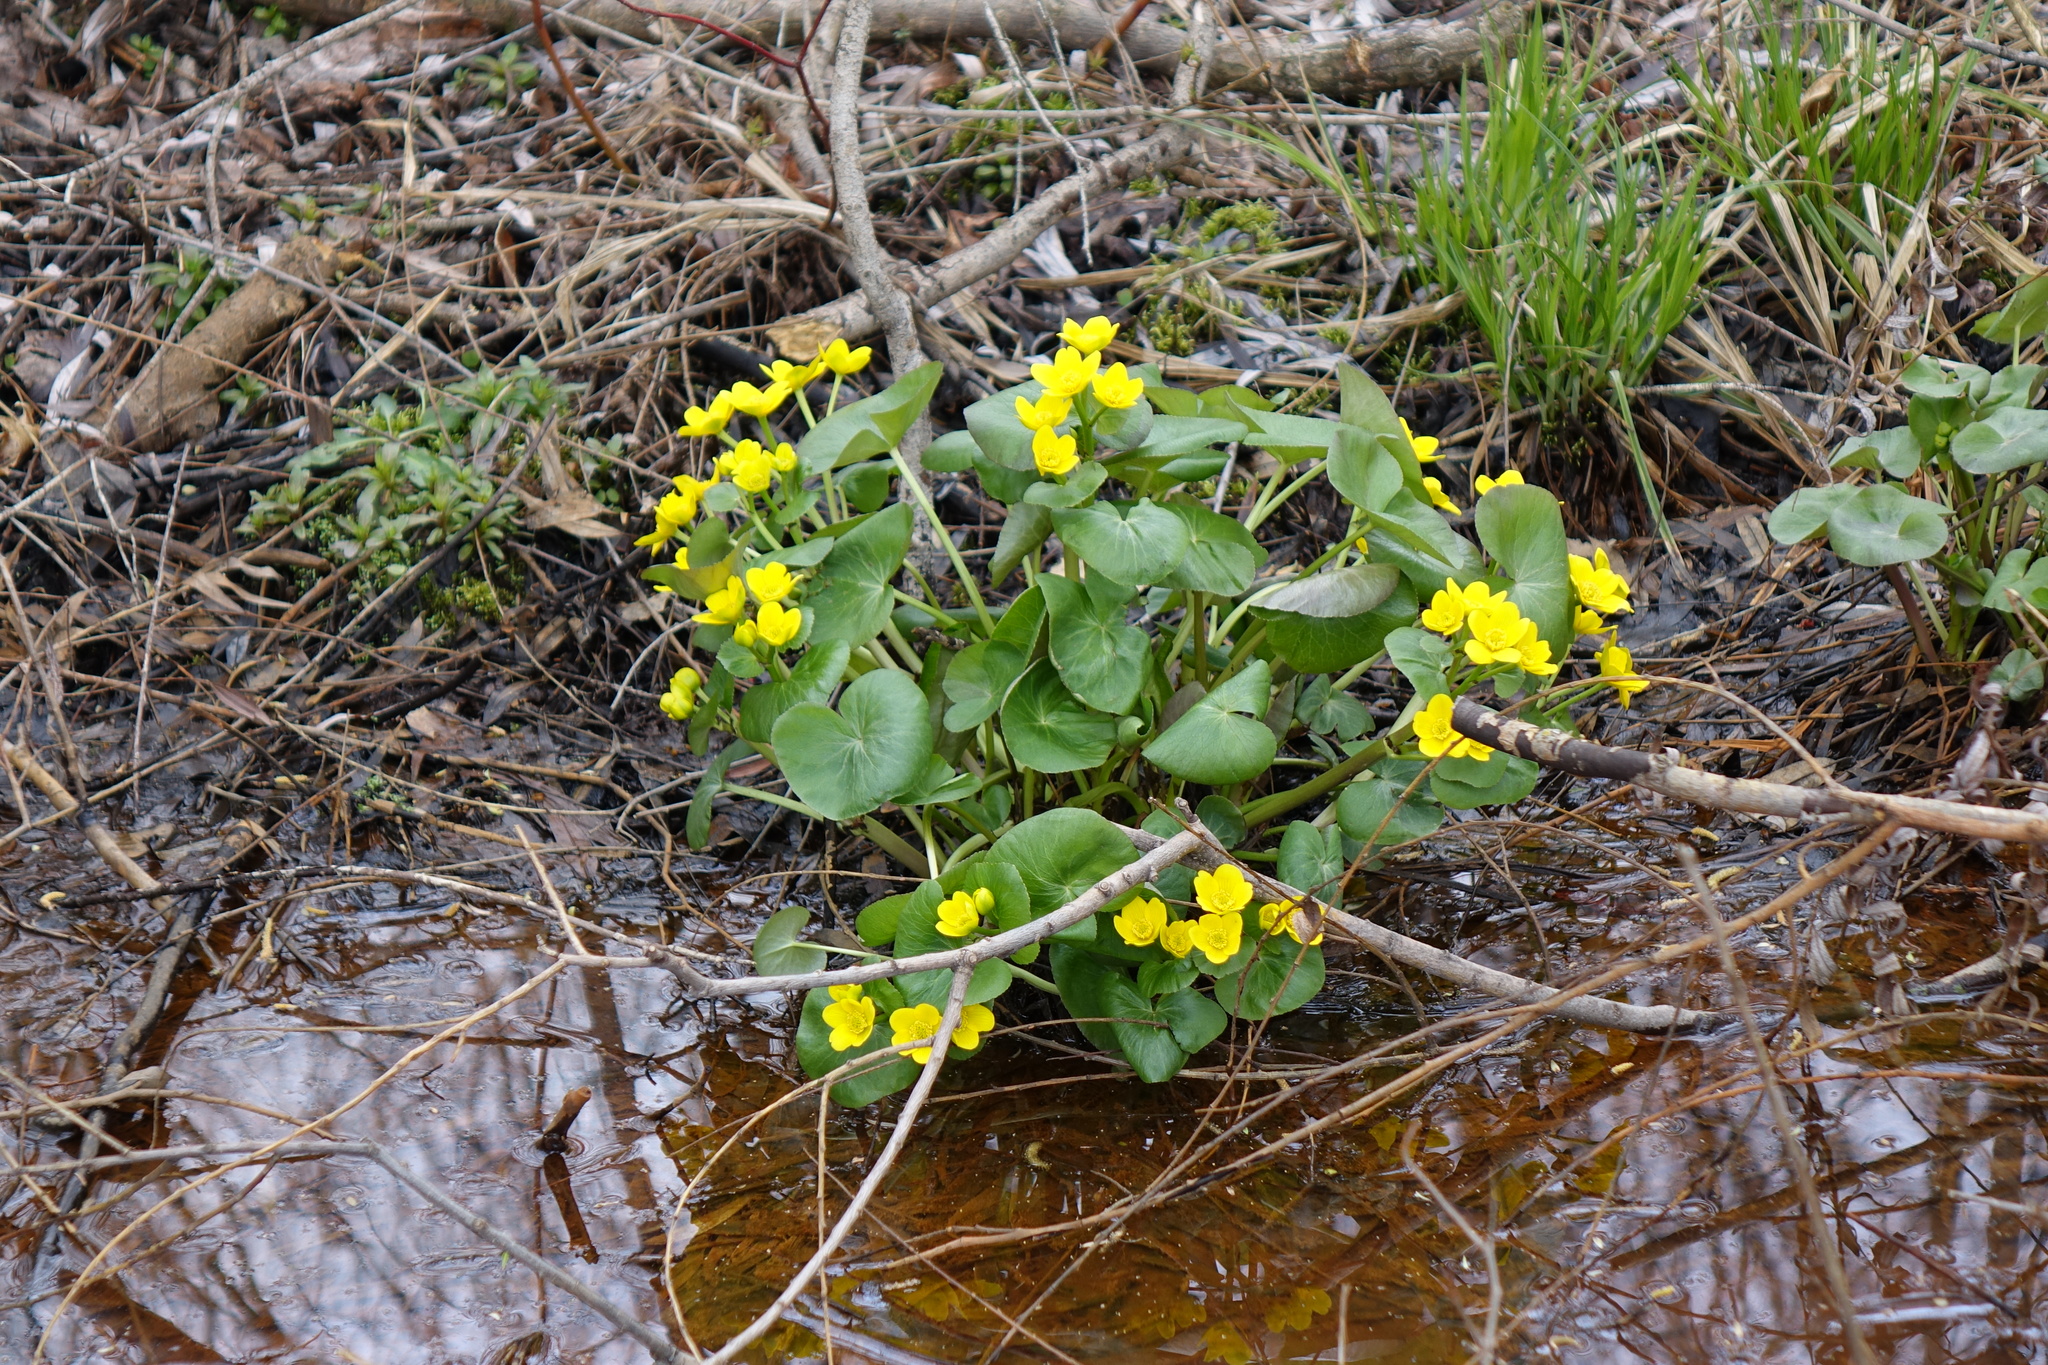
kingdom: Plantae
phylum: Tracheophyta
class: Magnoliopsida
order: Ranunculales
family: Ranunculaceae
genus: Caltha
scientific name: Caltha palustris
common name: Marsh marigold
